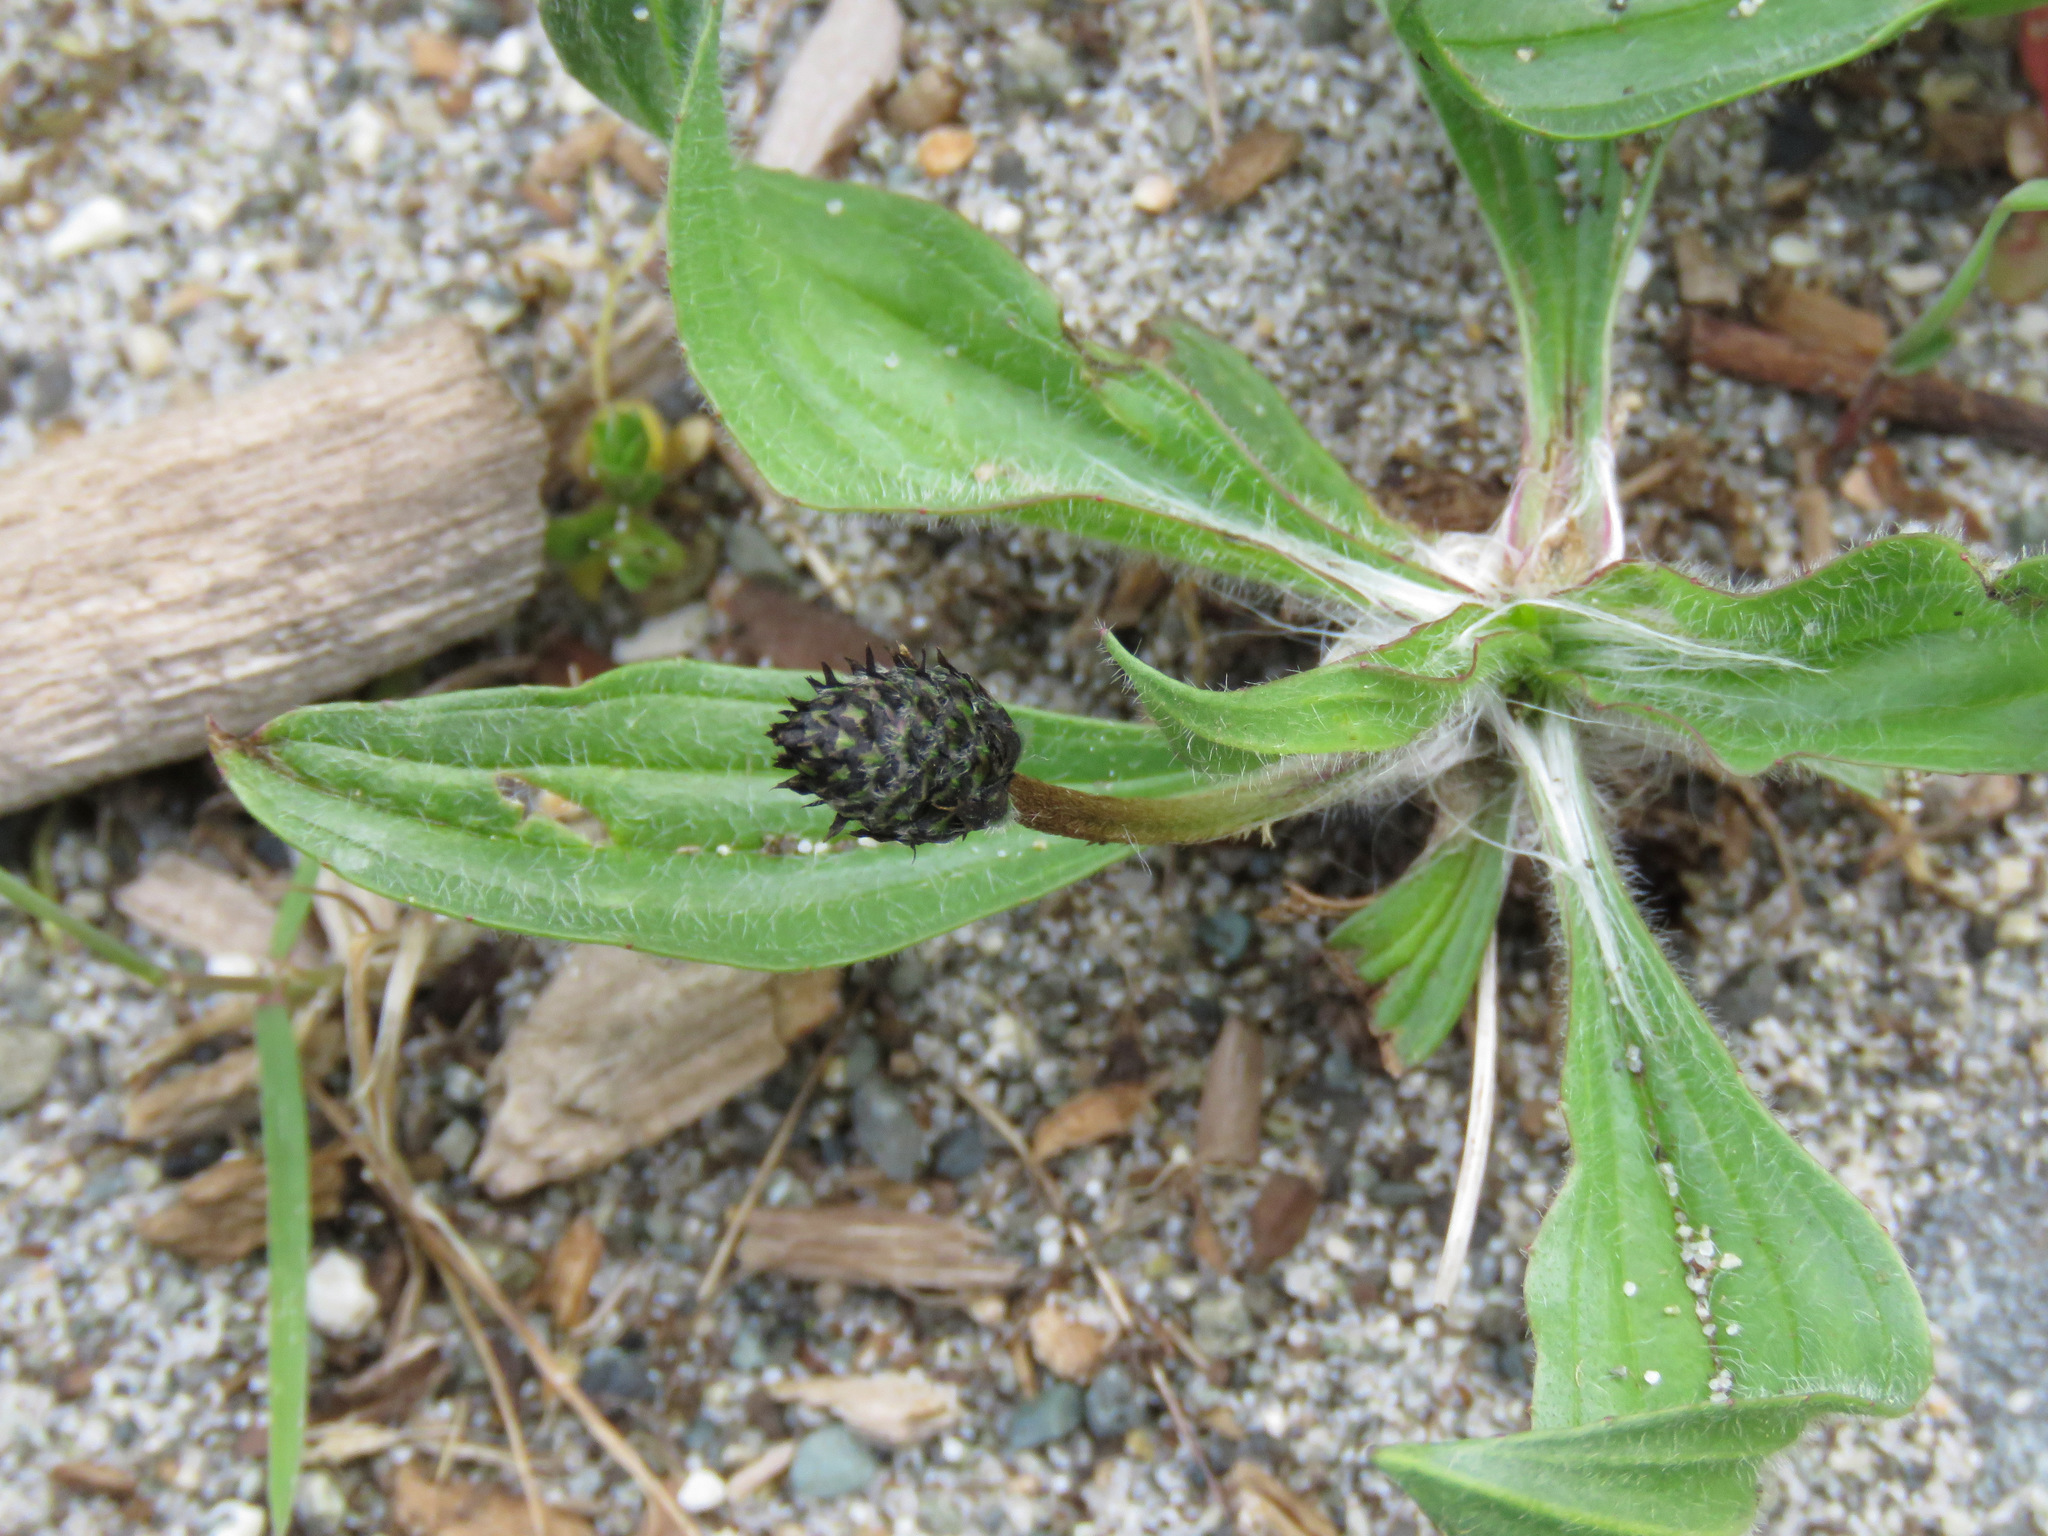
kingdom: Plantae
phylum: Tracheophyta
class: Magnoliopsida
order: Lamiales
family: Plantaginaceae
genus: Plantago
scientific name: Plantago lanceolata
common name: Ribwort plantain
